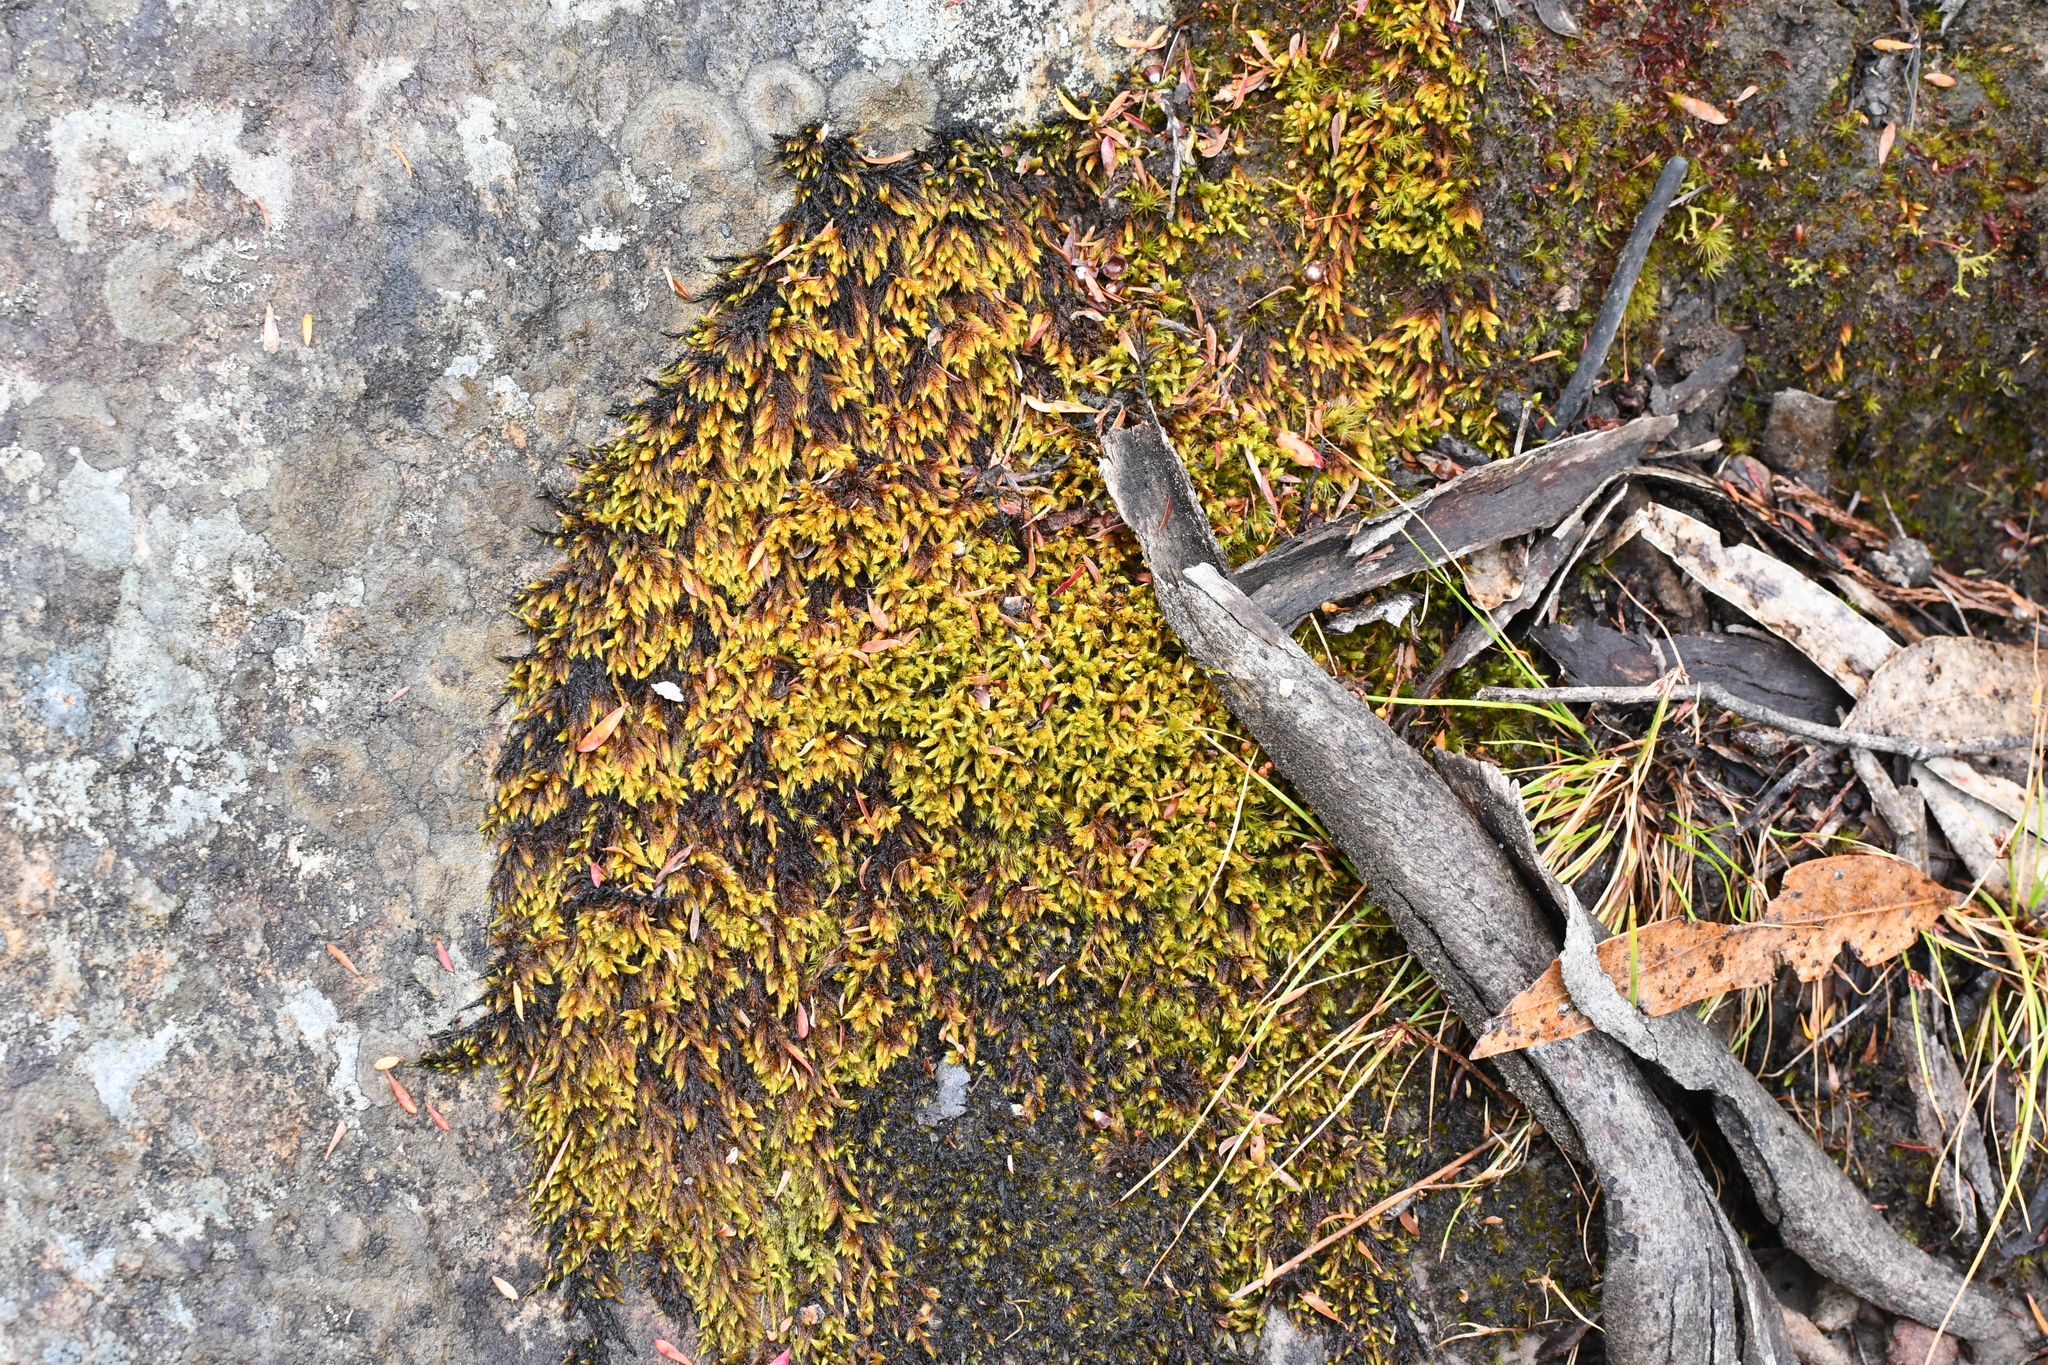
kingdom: Plantae
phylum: Bryophyta
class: Bryopsida
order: Hedwigiales
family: Hedwigiaceae
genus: Rhacocarpus
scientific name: Rhacocarpus purpurascens
